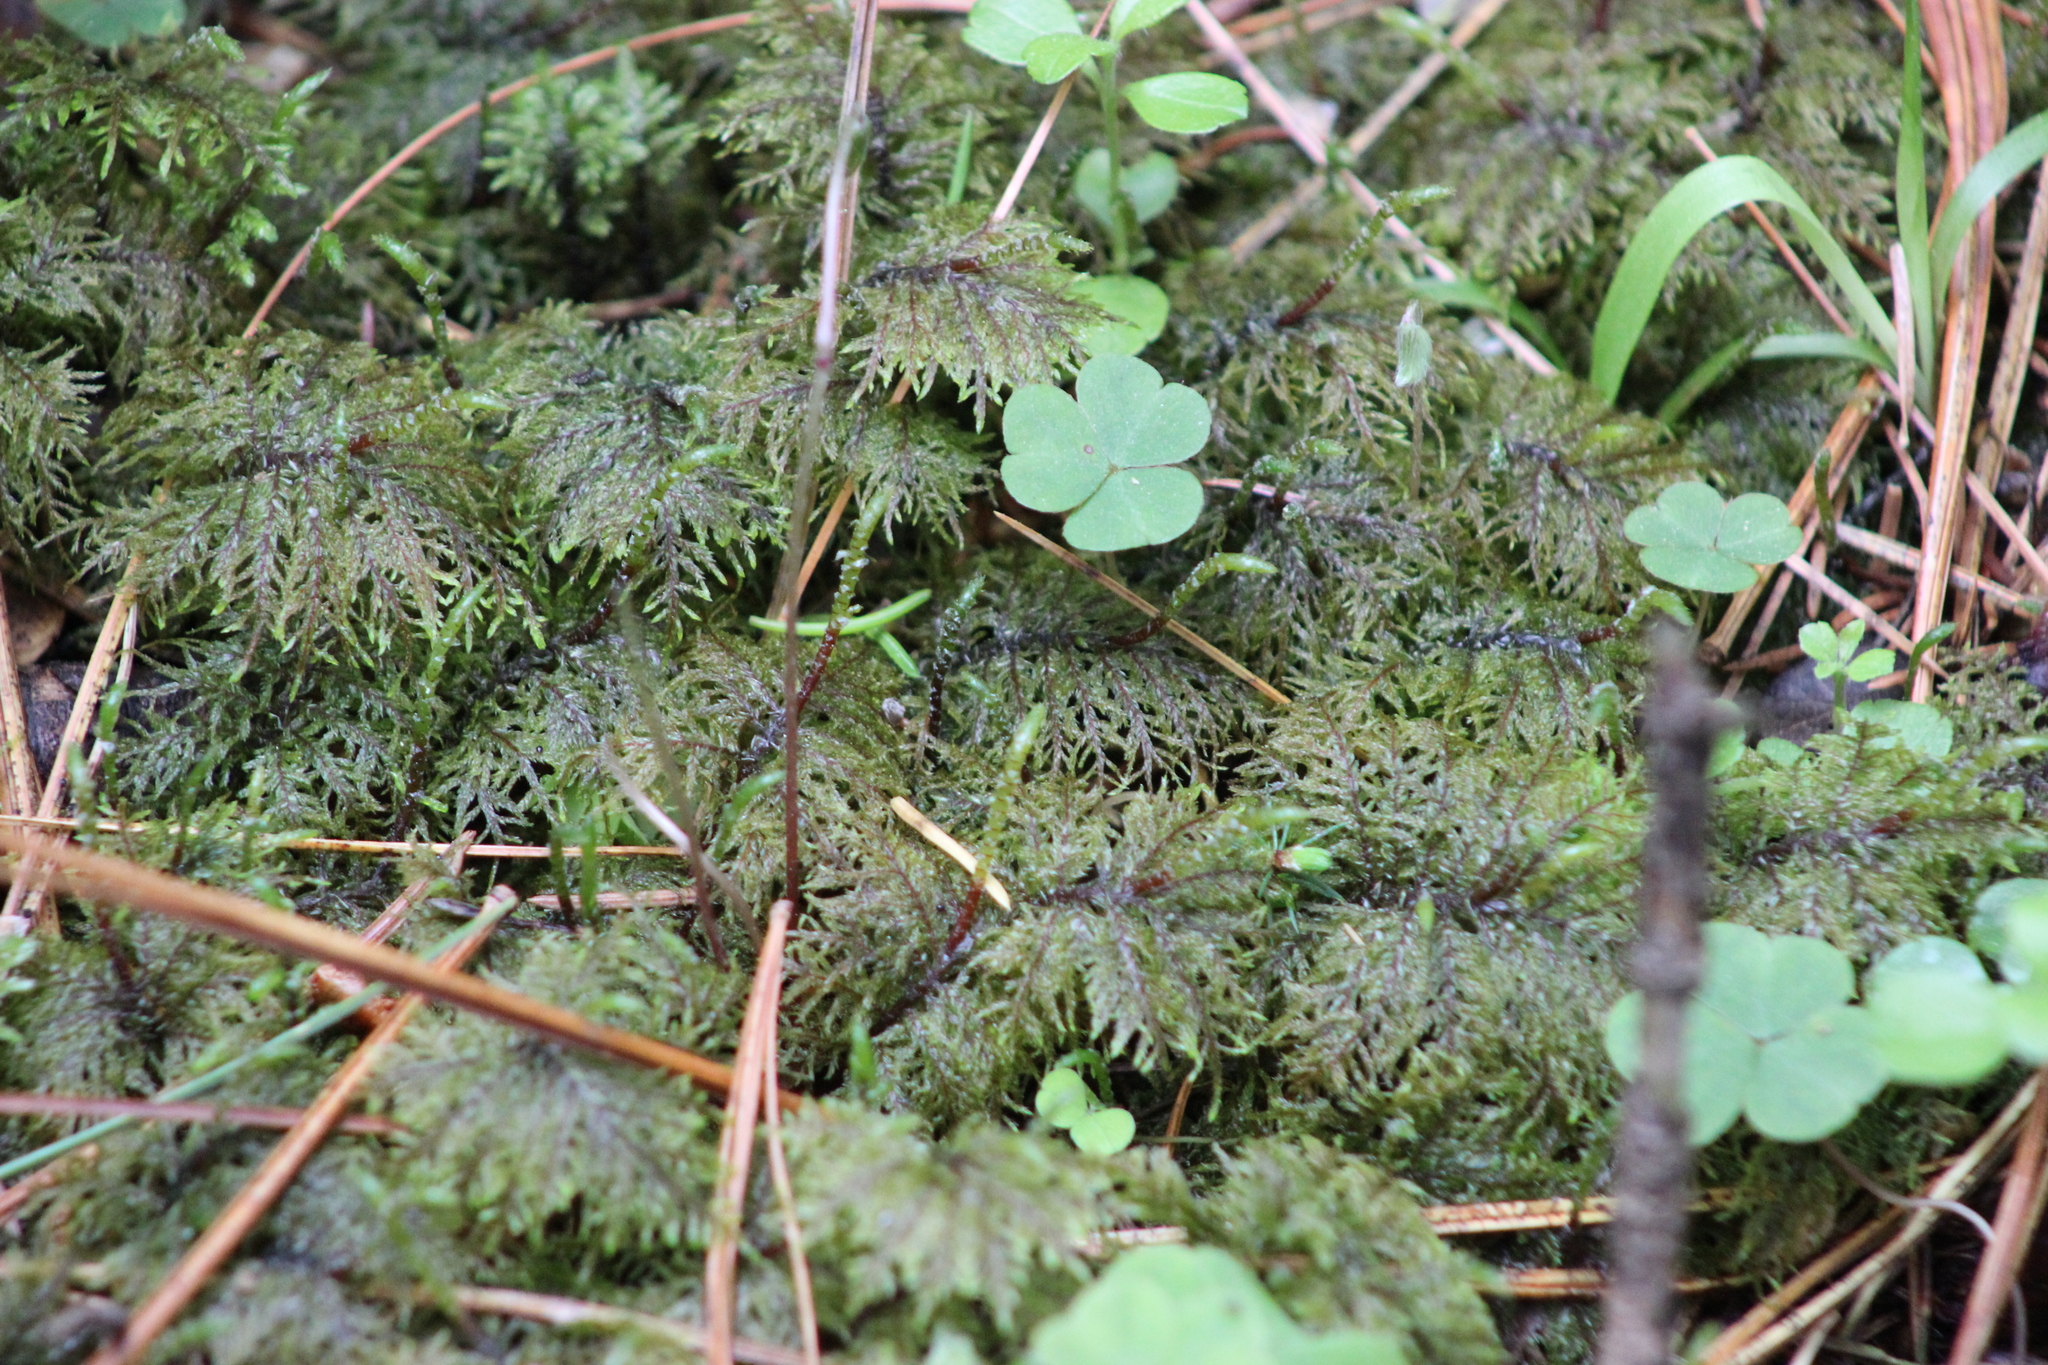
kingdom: Plantae
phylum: Bryophyta
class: Bryopsida
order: Hypnales
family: Hylocomiaceae
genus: Hylocomium
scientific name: Hylocomium splendens
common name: Stairstep moss
